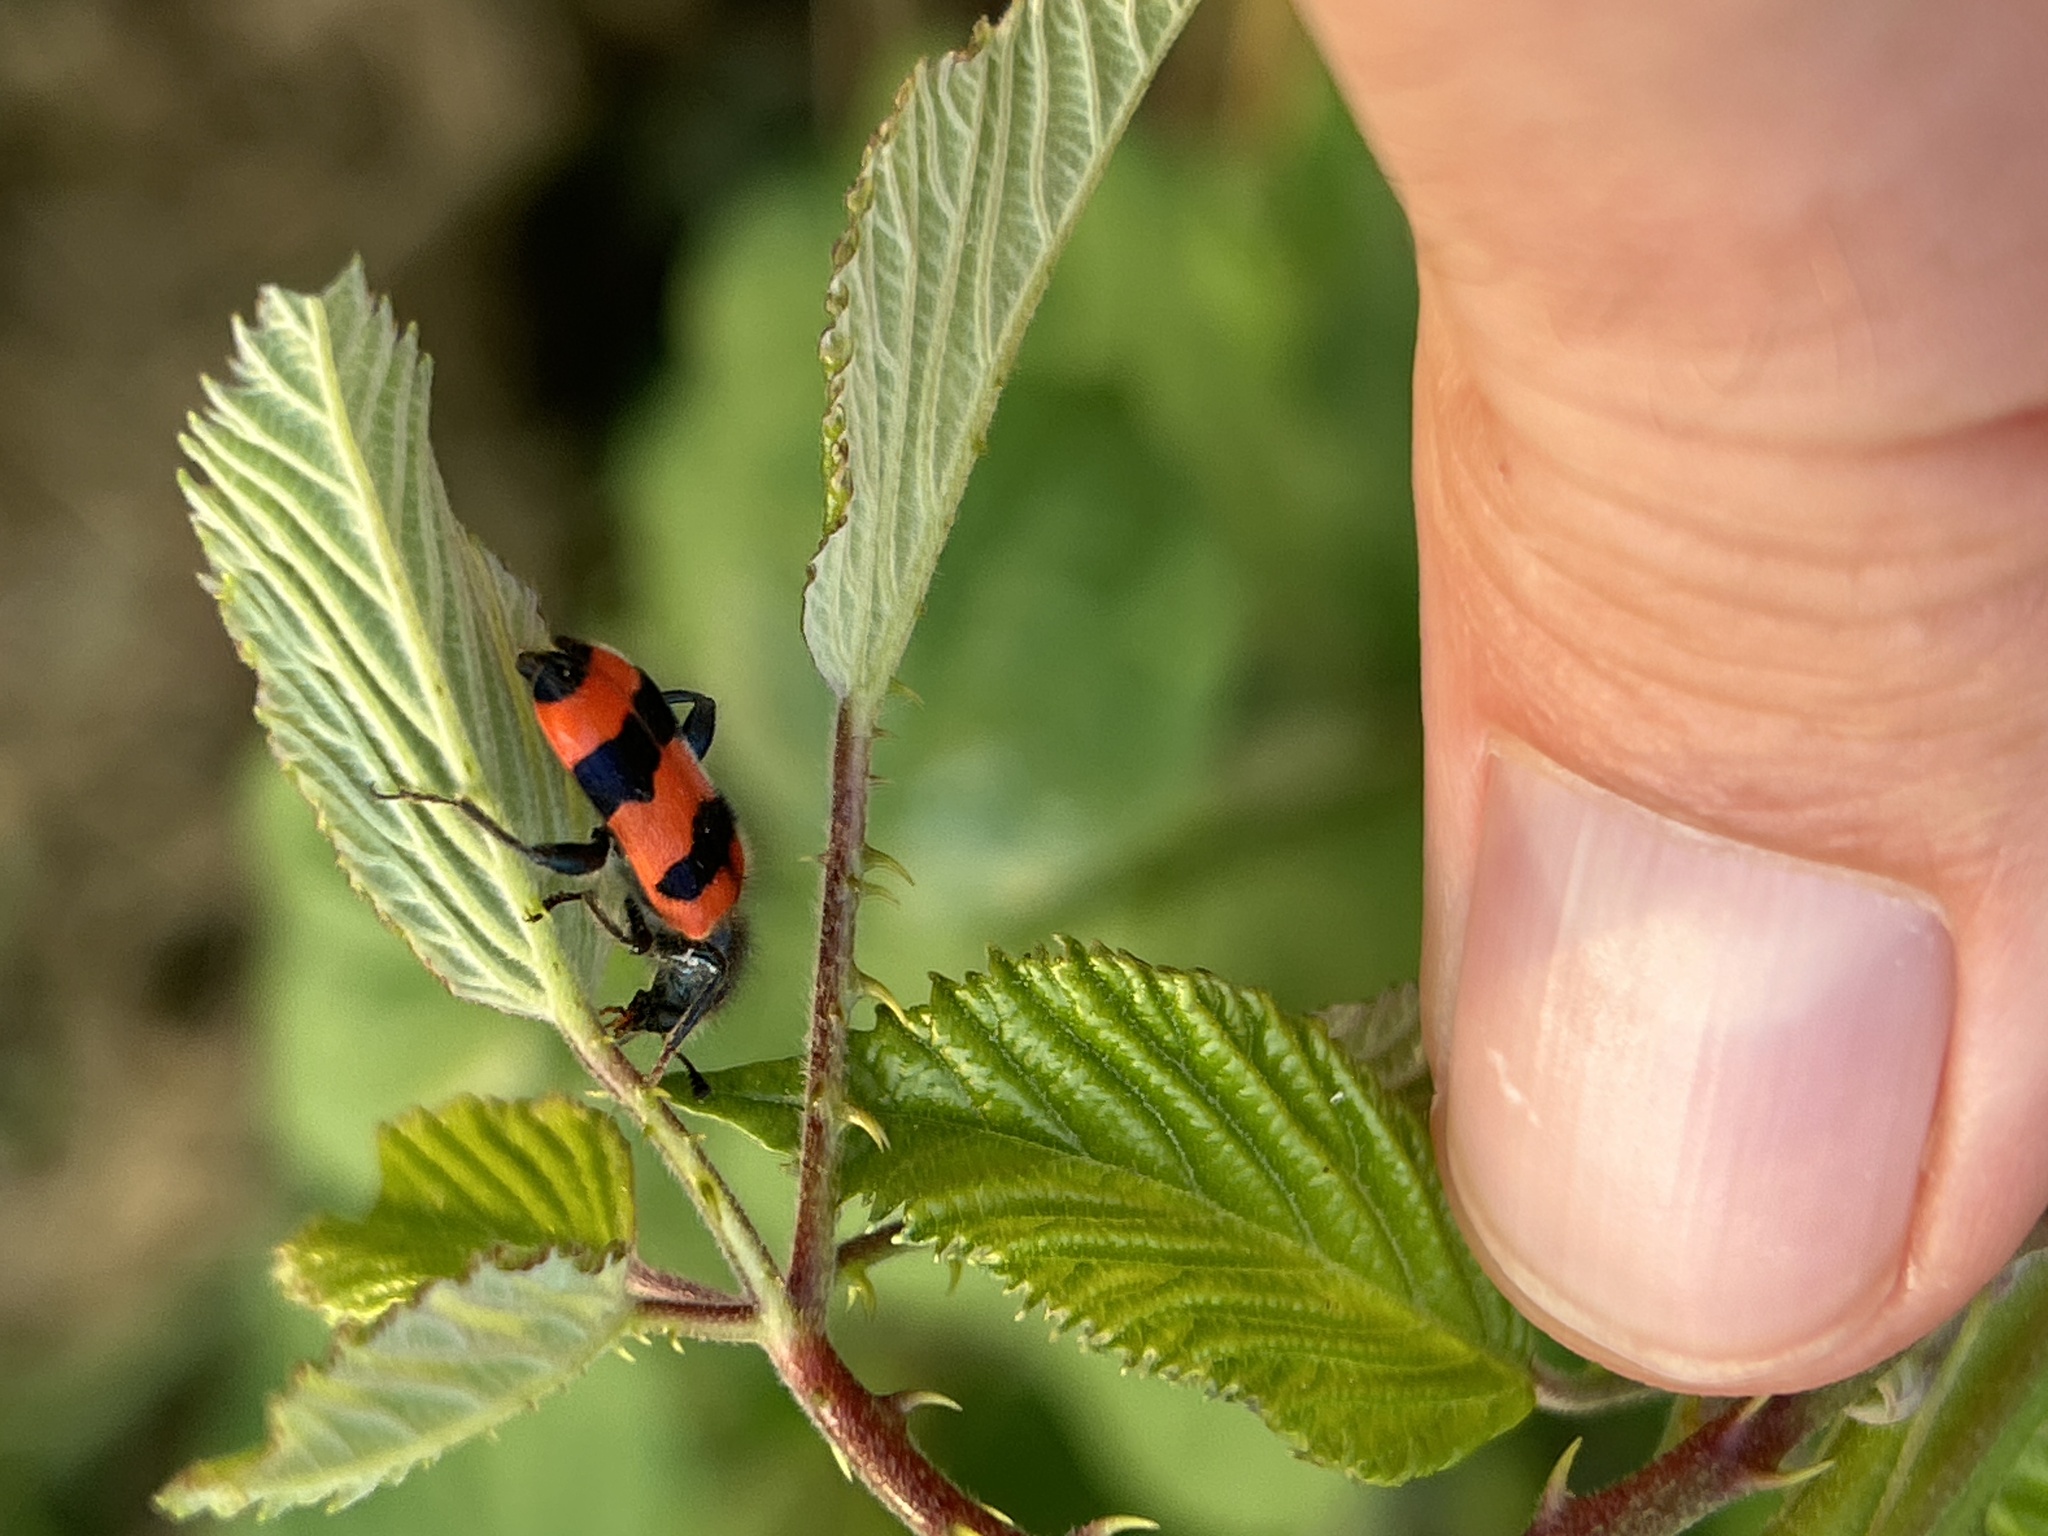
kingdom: Animalia
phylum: Arthropoda
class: Insecta
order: Coleoptera
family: Cleridae
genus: Trichodes
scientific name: Trichodes apiarius
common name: Bee-eating beetle
